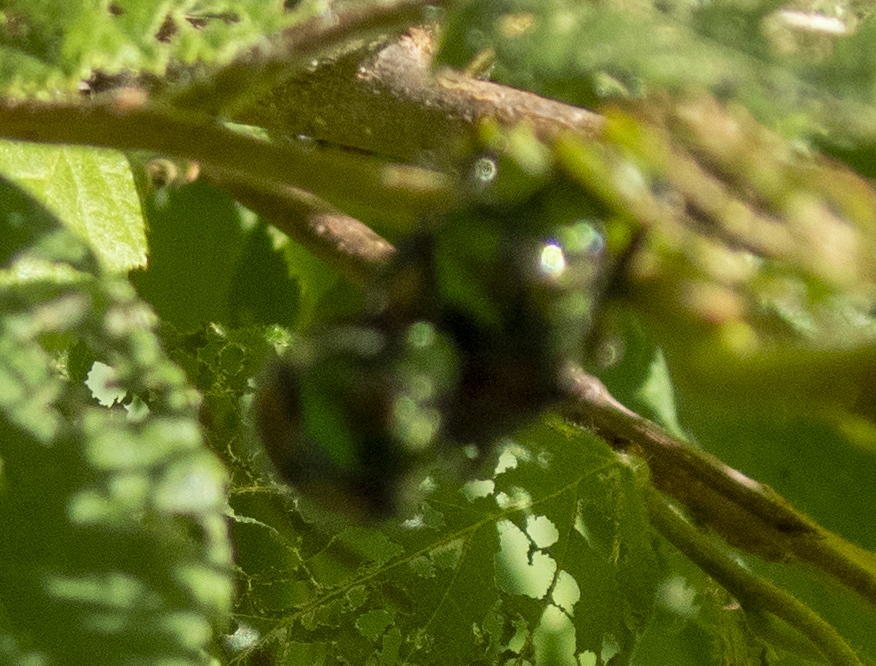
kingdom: Animalia
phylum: Arthropoda
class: Insecta
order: Hemiptera
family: Miridae
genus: Poecilocapsus
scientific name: Poecilocapsus lineatus
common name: Four-lined plant bug
